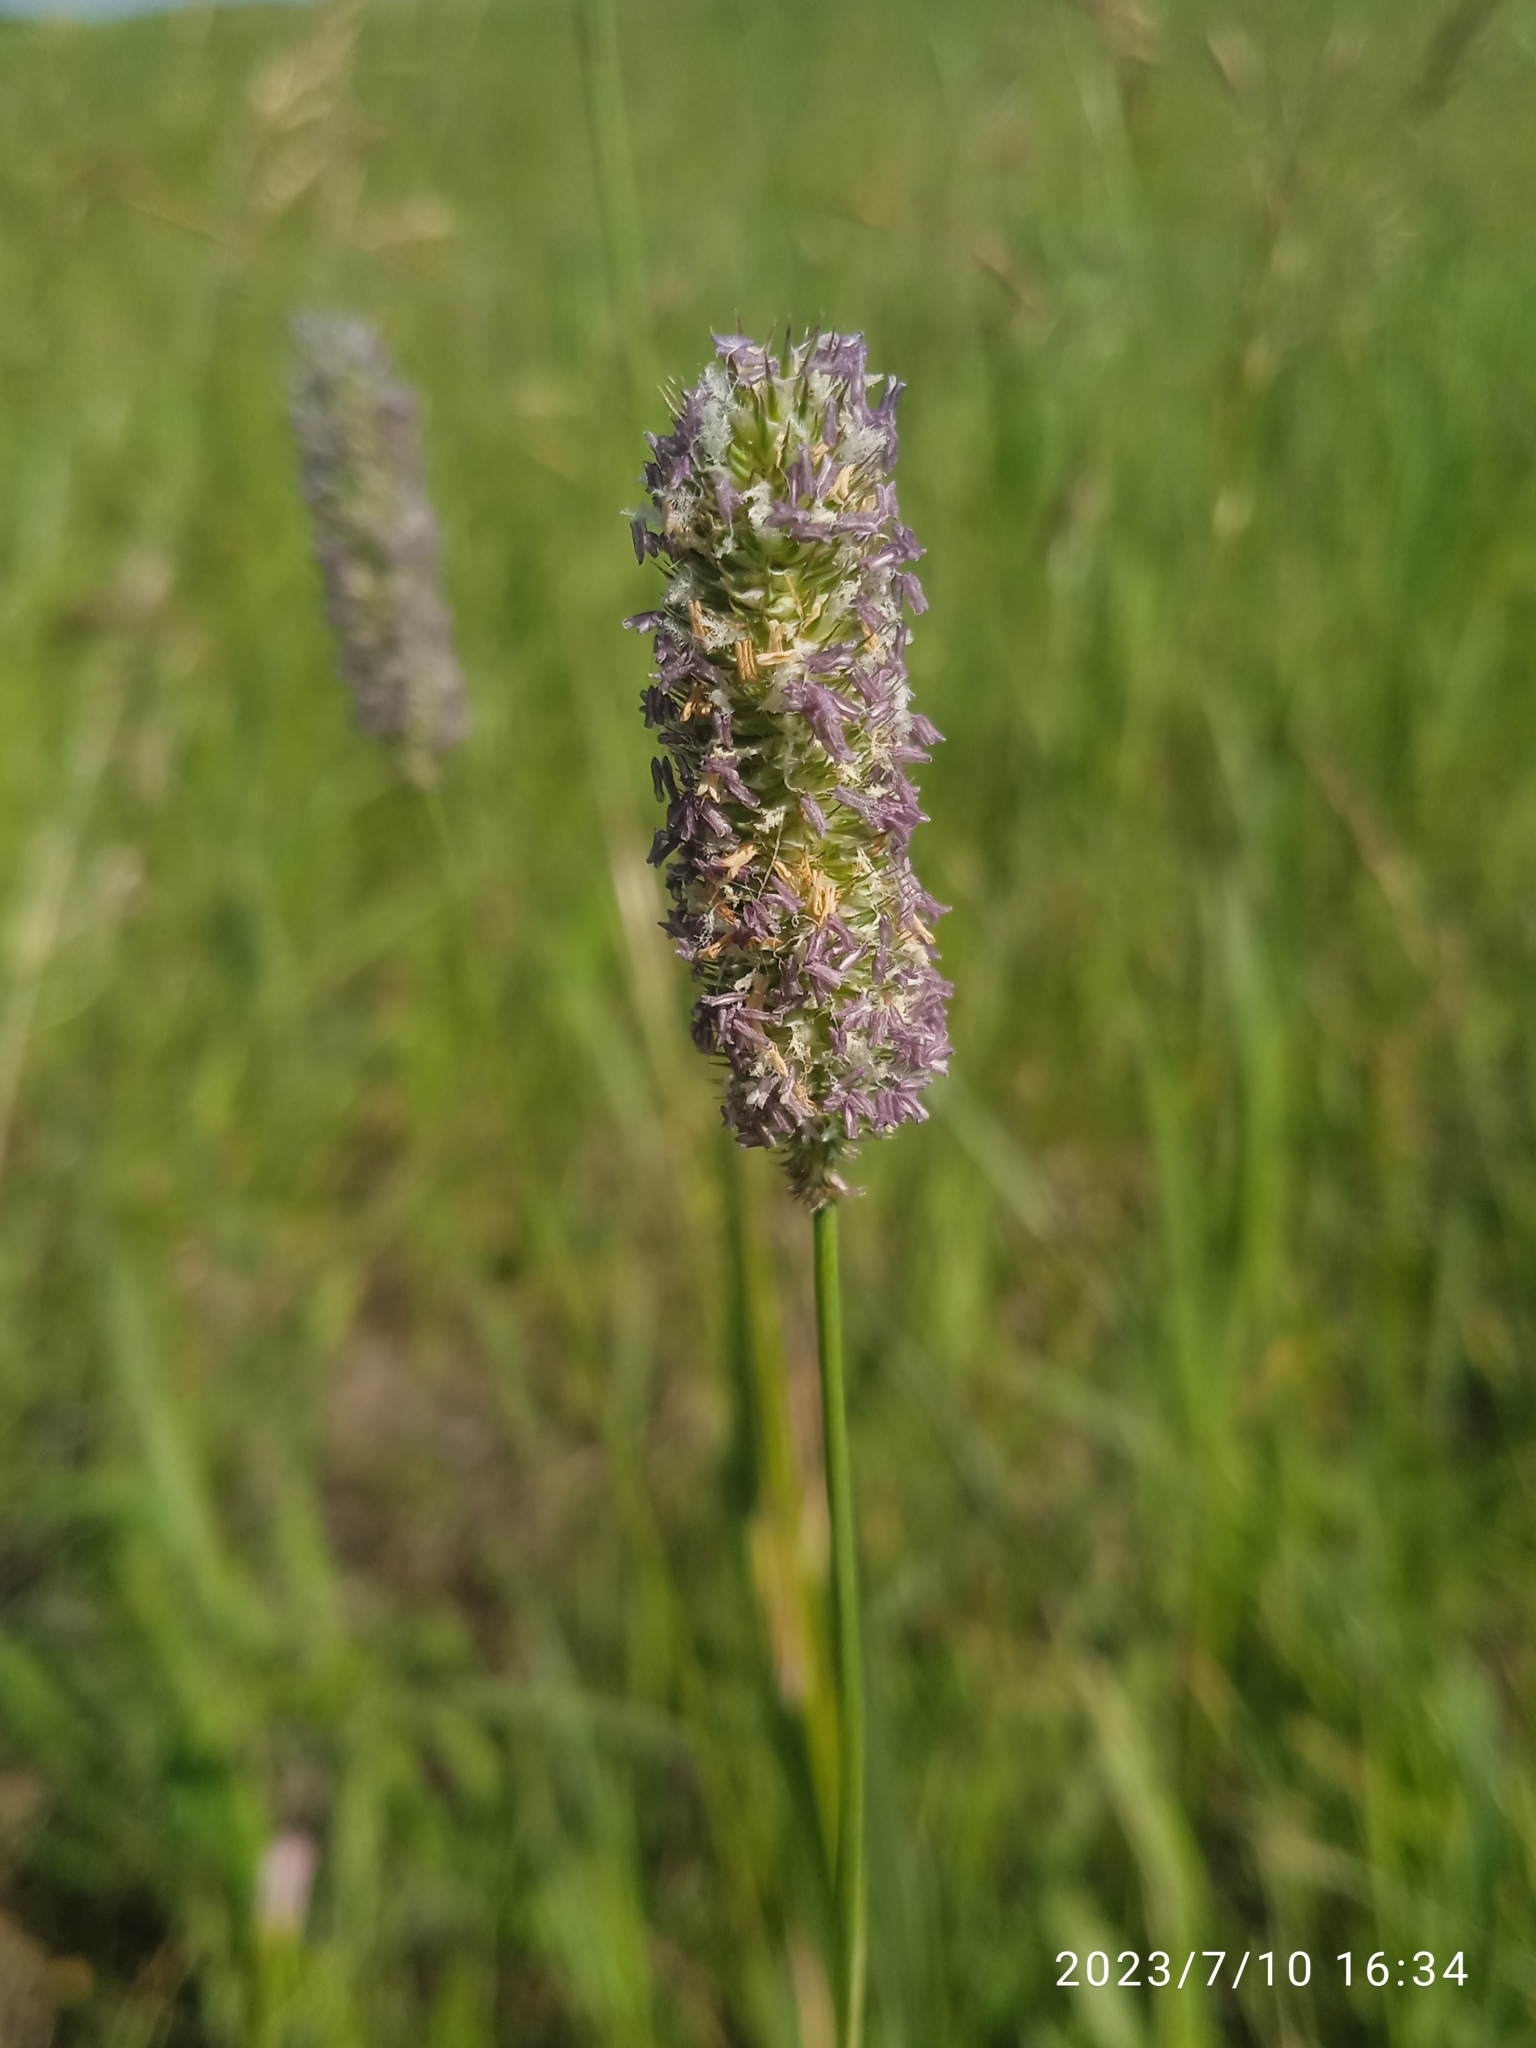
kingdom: Plantae
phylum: Tracheophyta
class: Liliopsida
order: Poales
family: Poaceae
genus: Phleum
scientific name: Phleum pratense
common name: Timothy grass
